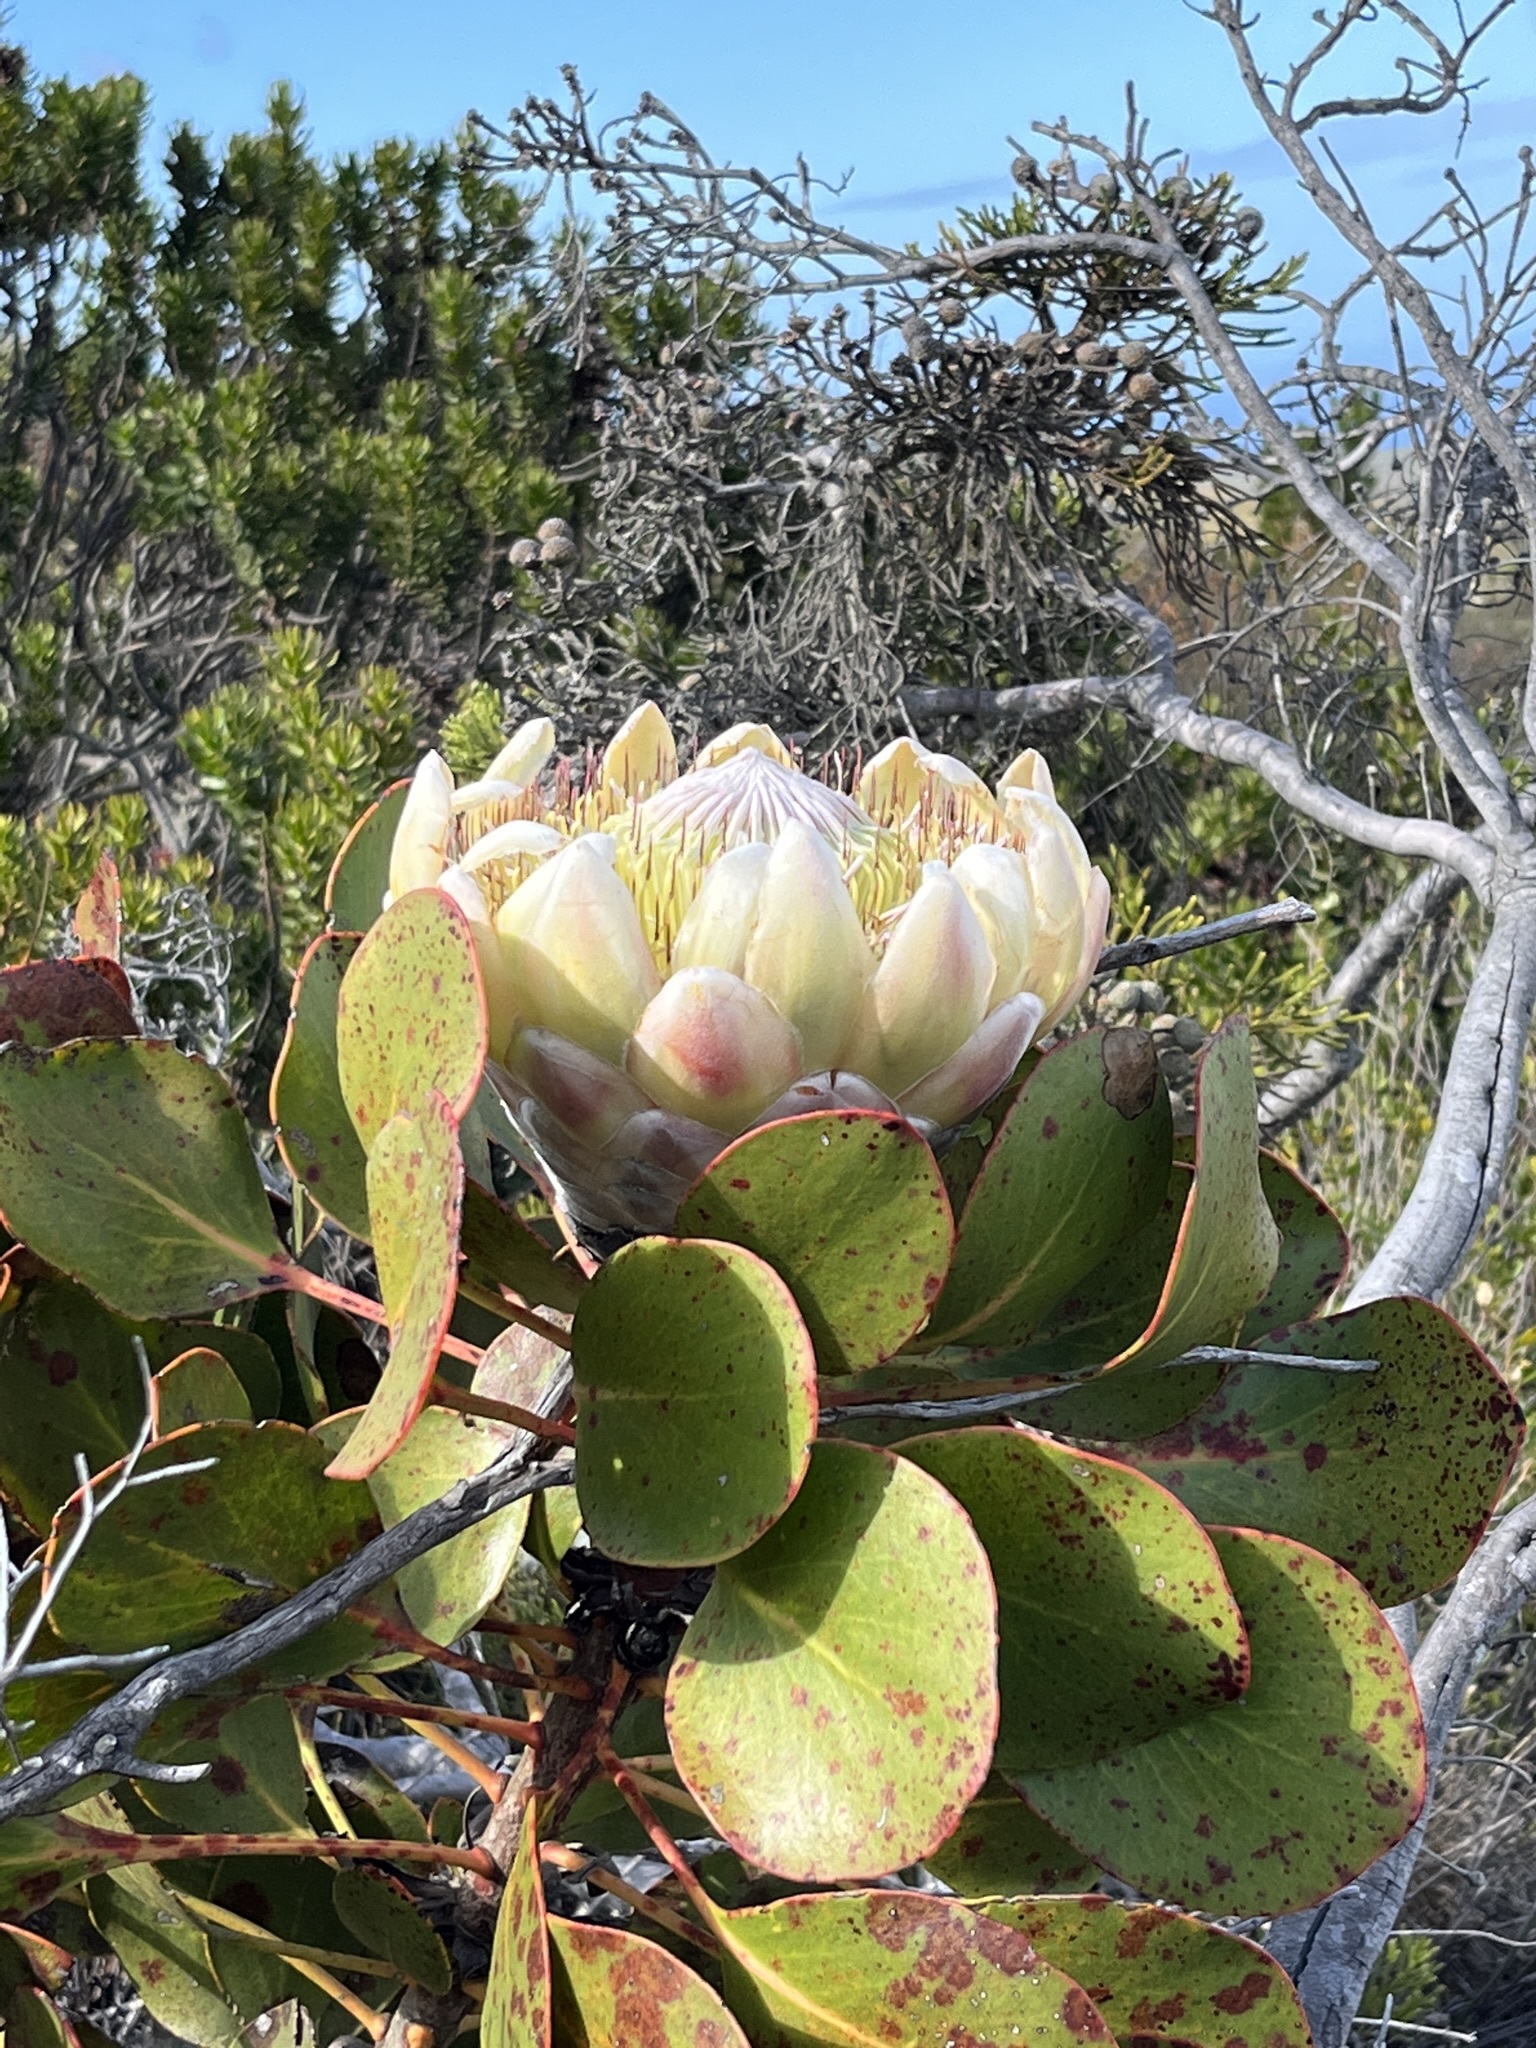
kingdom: Plantae
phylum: Tracheophyta
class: Magnoliopsida
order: Proteales
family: Proteaceae
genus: Protea
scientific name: Protea cynaroides
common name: King protea
